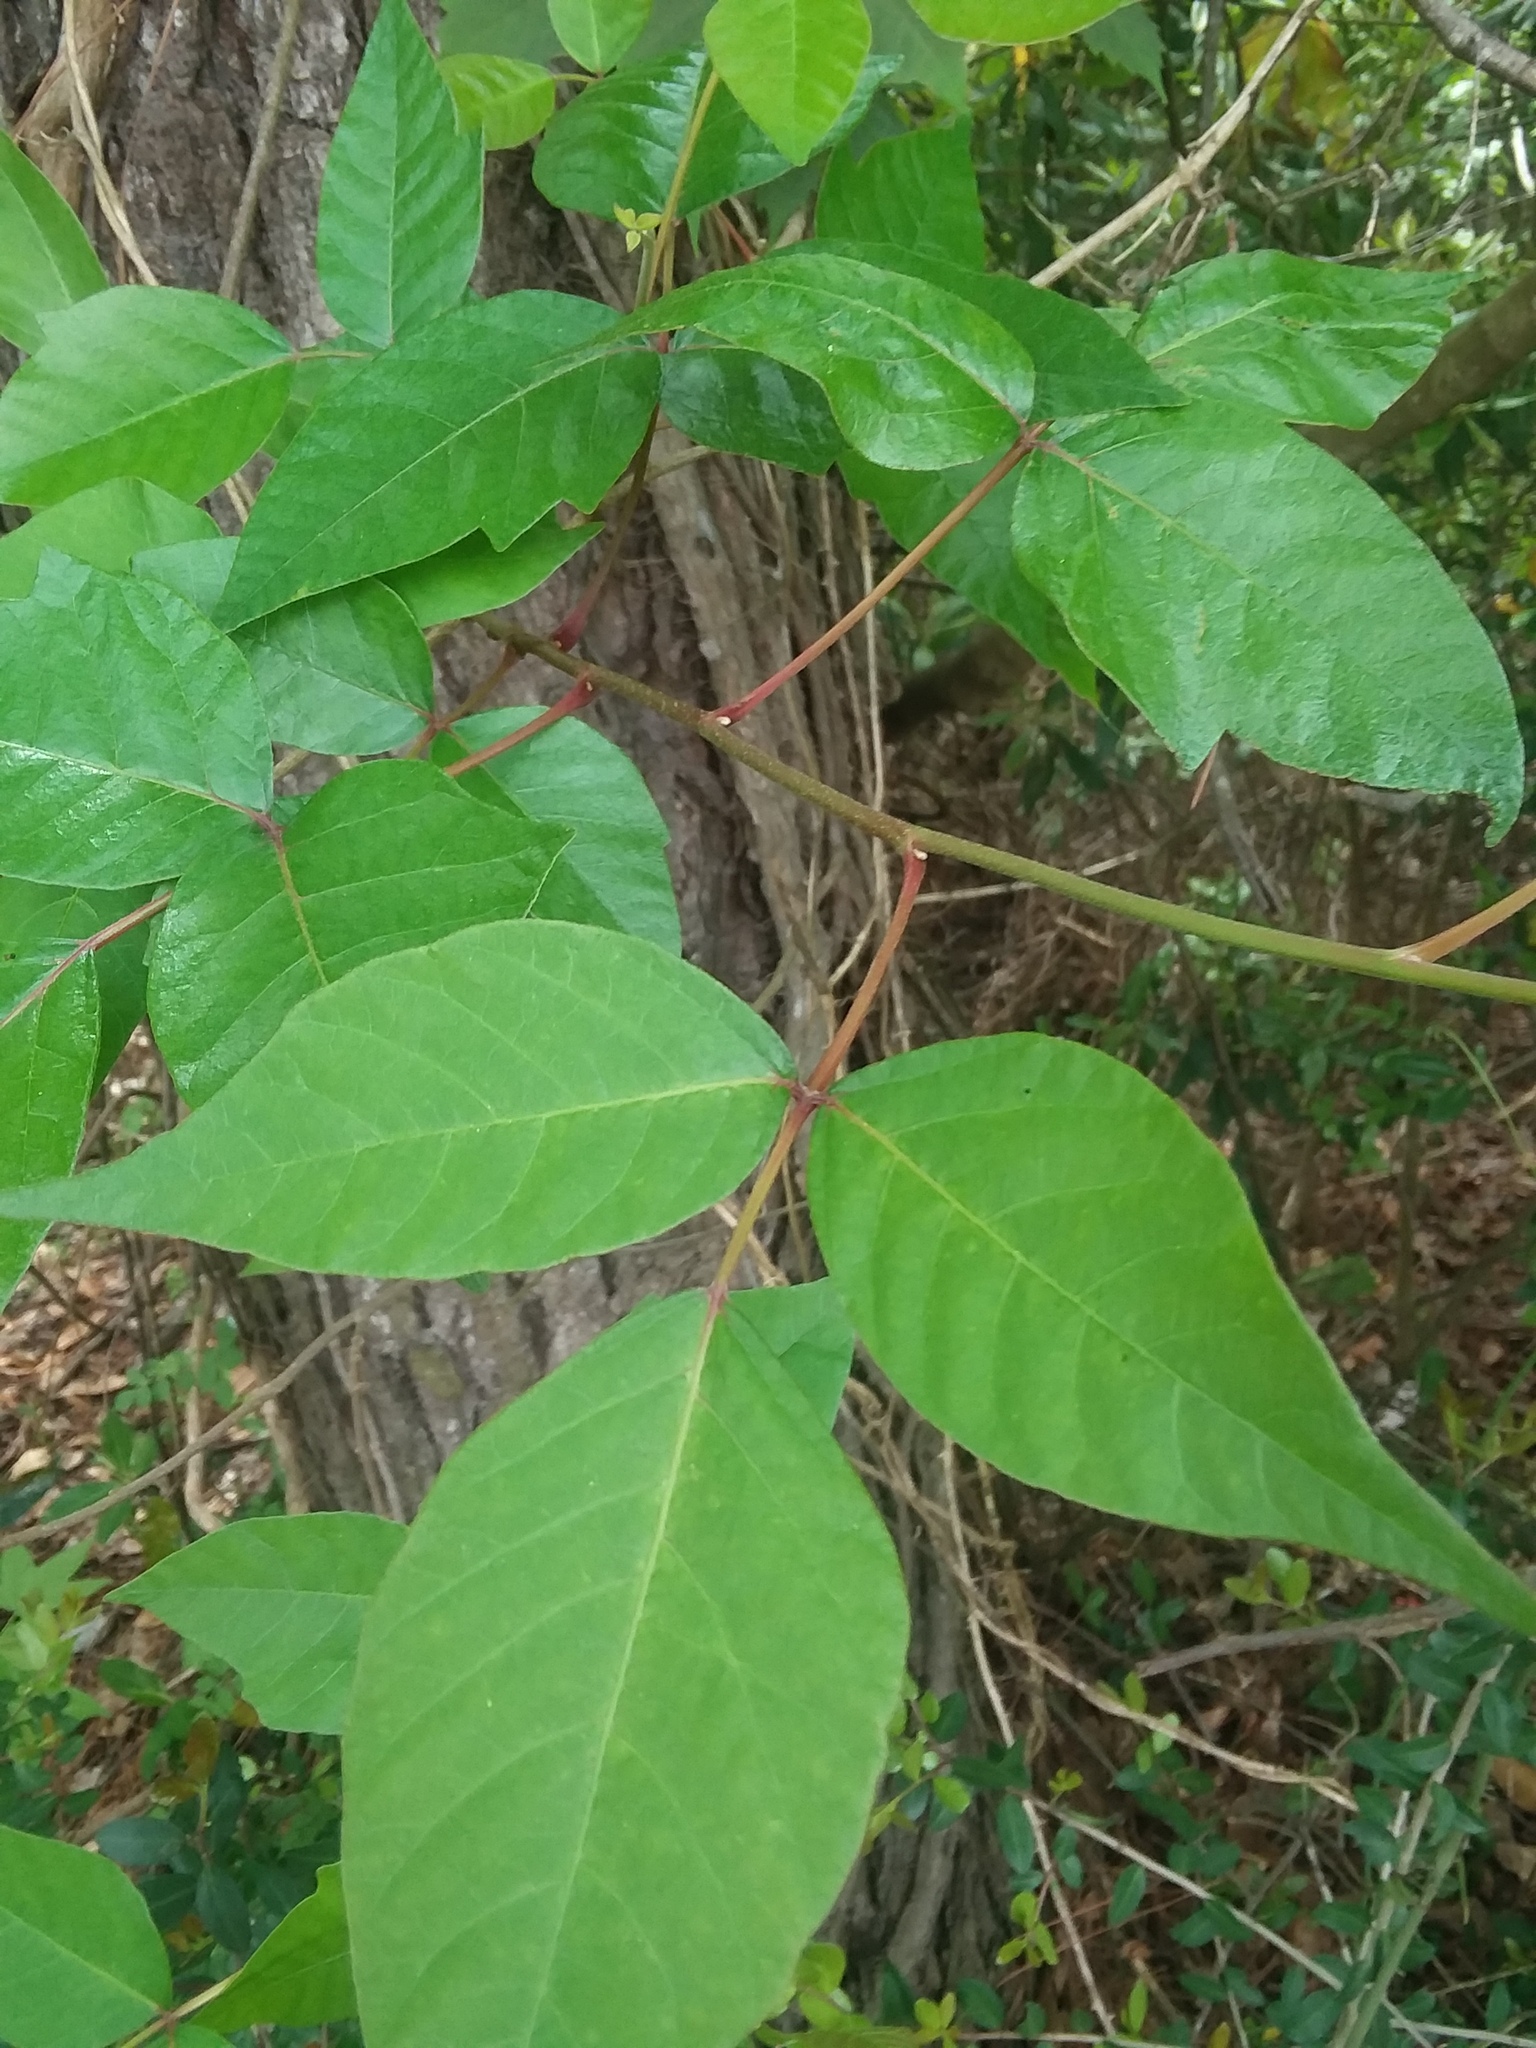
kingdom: Plantae
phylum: Tracheophyta
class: Magnoliopsida
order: Sapindales
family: Anacardiaceae
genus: Toxicodendron
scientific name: Toxicodendron radicans
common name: Poison ivy
